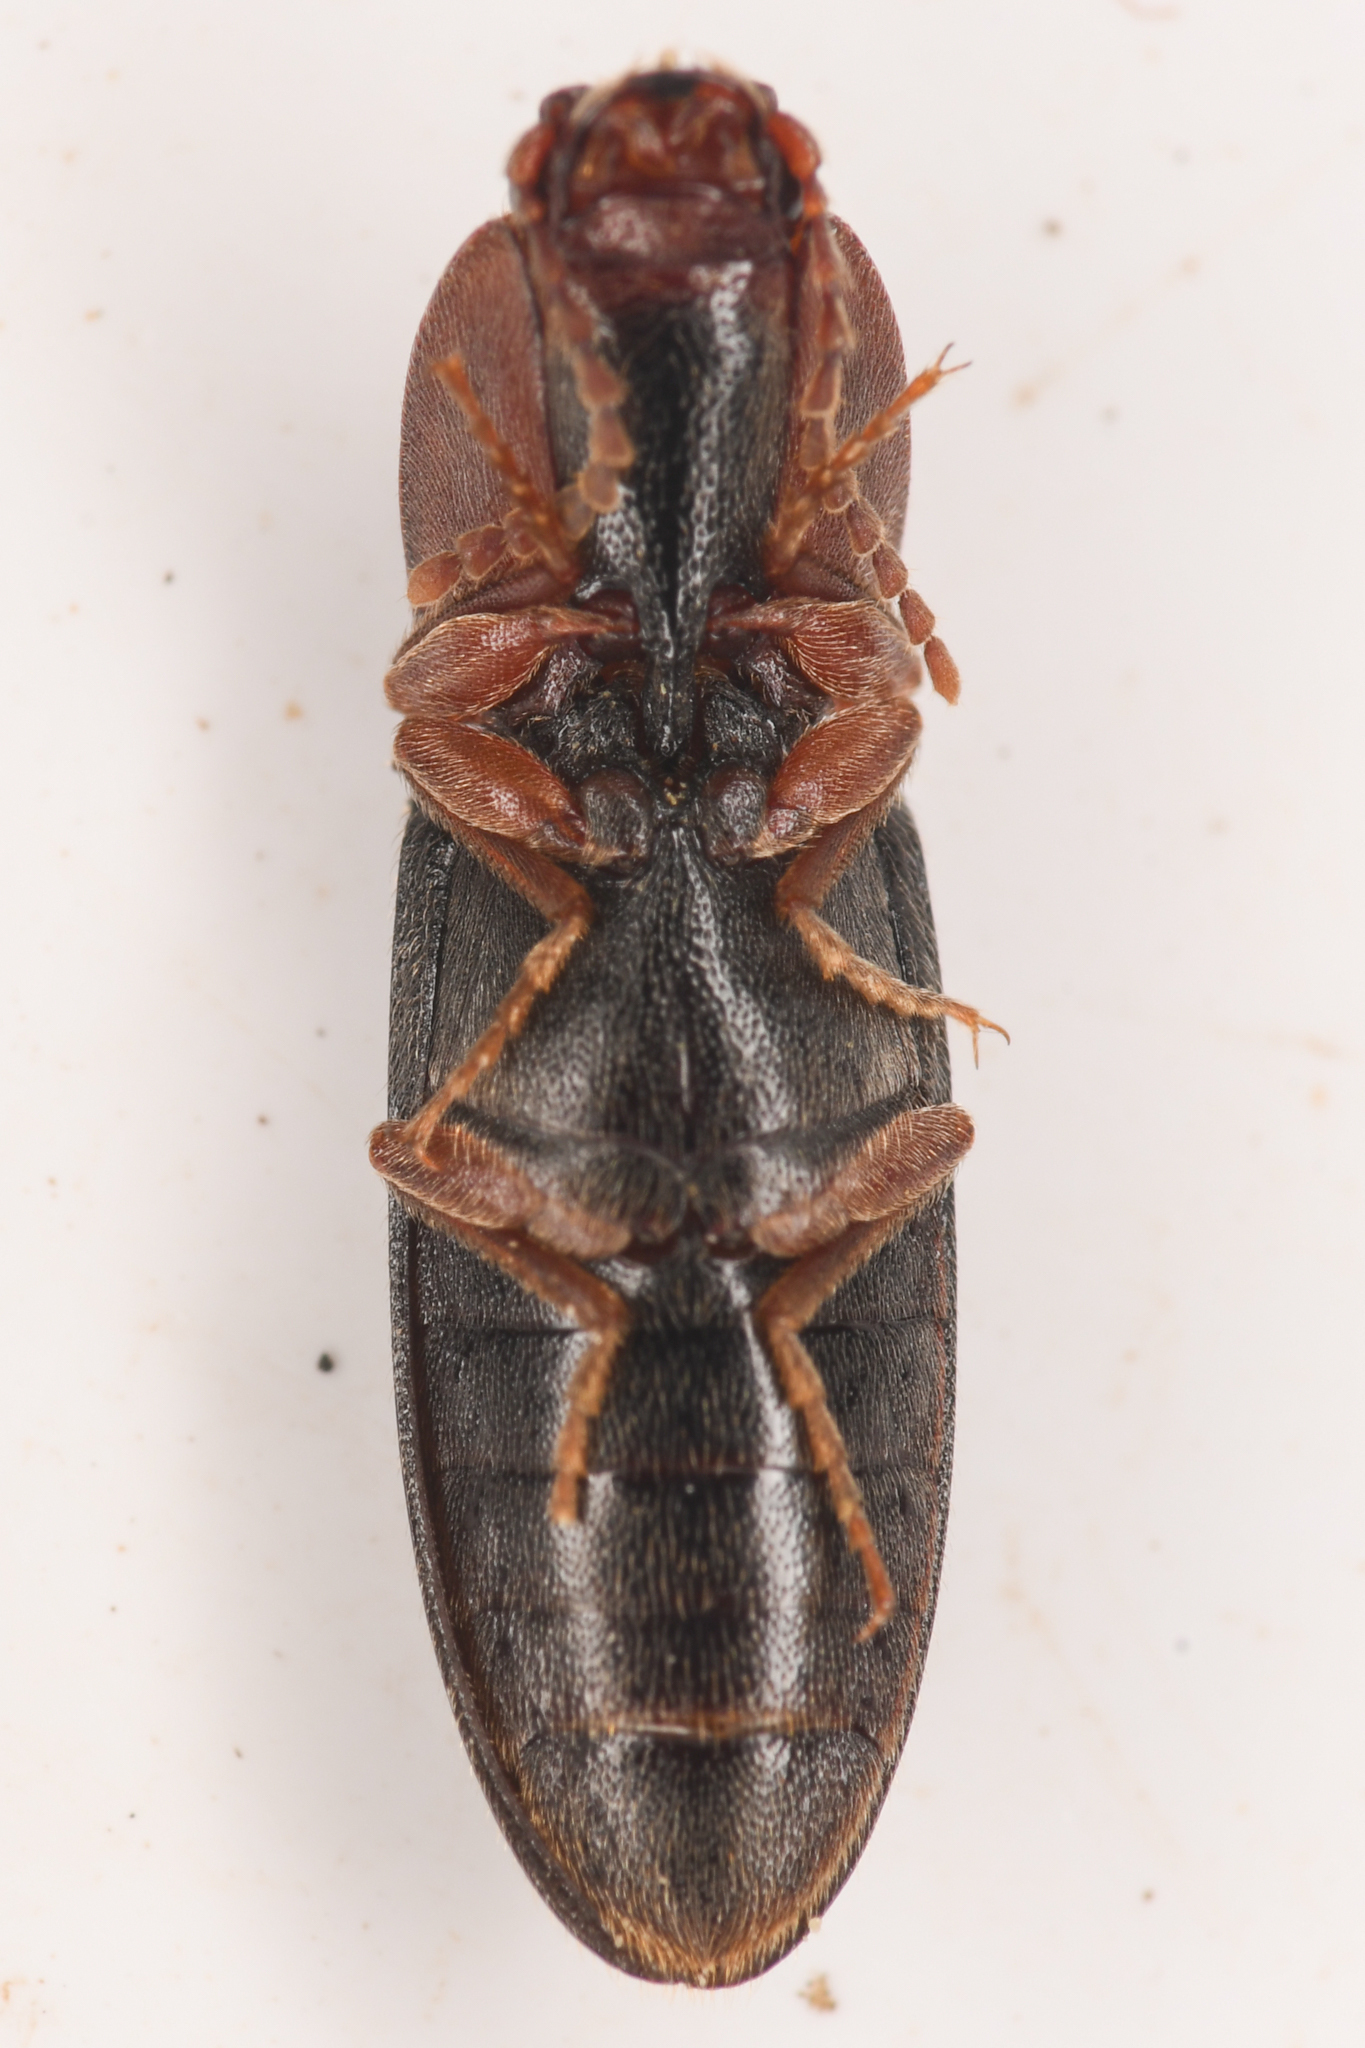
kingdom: Animalia
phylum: Arthropoda
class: Insecta
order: Coleoptera
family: Curculionidae
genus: Brownia
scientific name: Brownia
